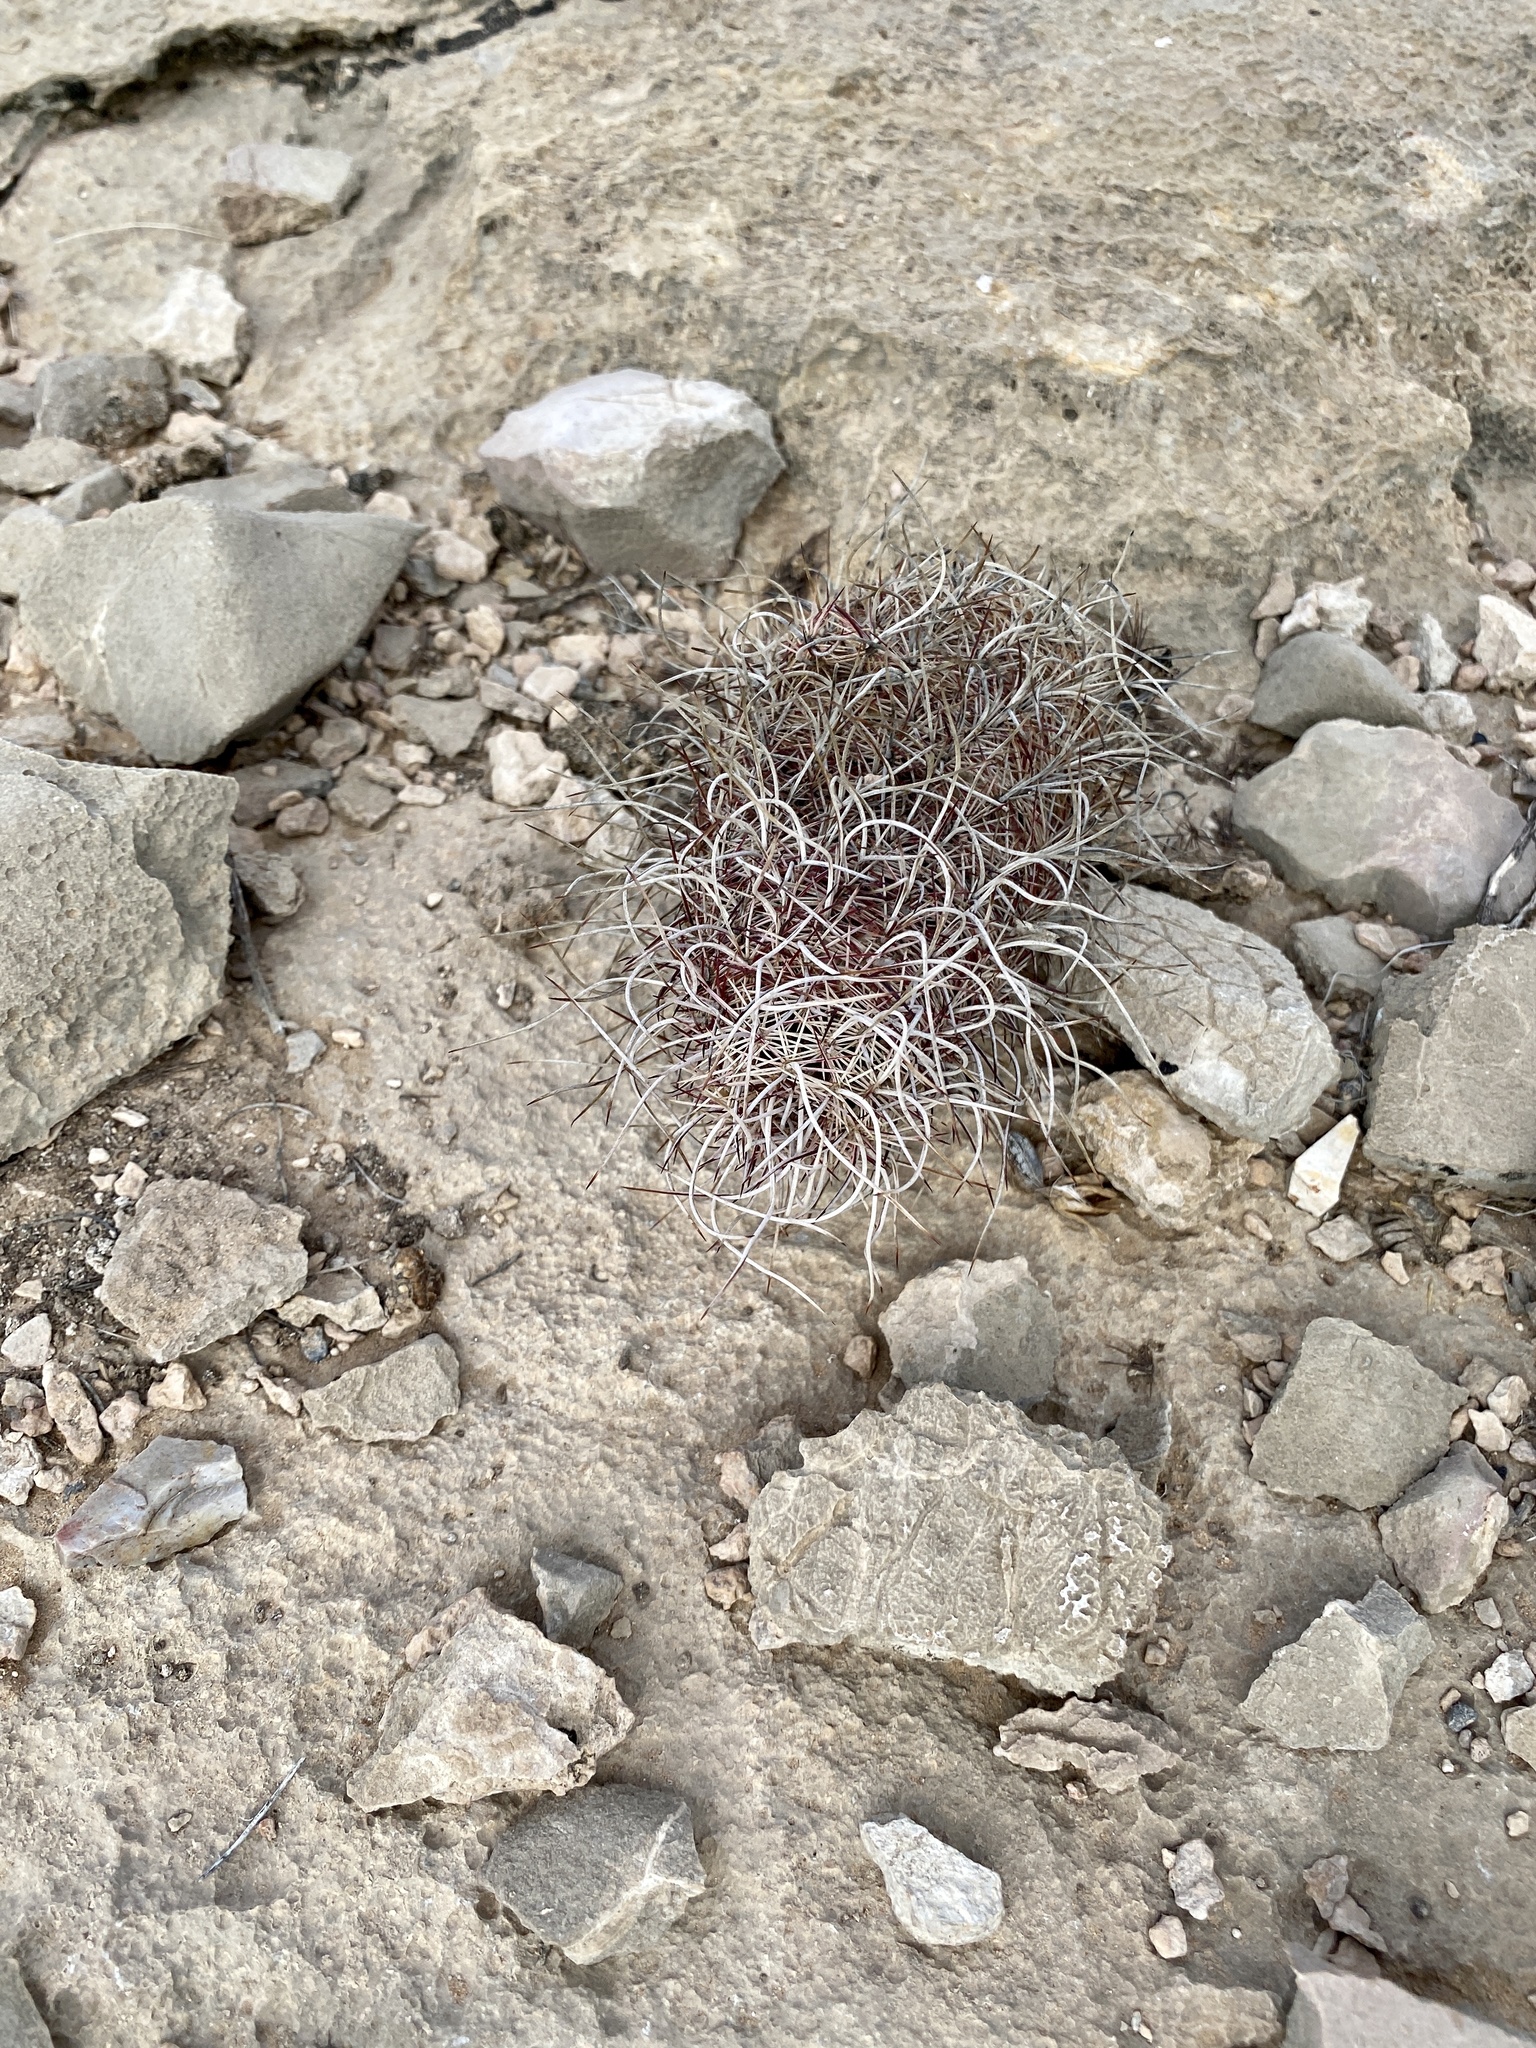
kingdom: Plantae
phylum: Tracheophyta
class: Magnoliopsida
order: Caryophyllales
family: Cactaceae
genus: Echinocereus
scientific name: Echinocereus viridiflorus
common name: Nylon hedgehog cactus
